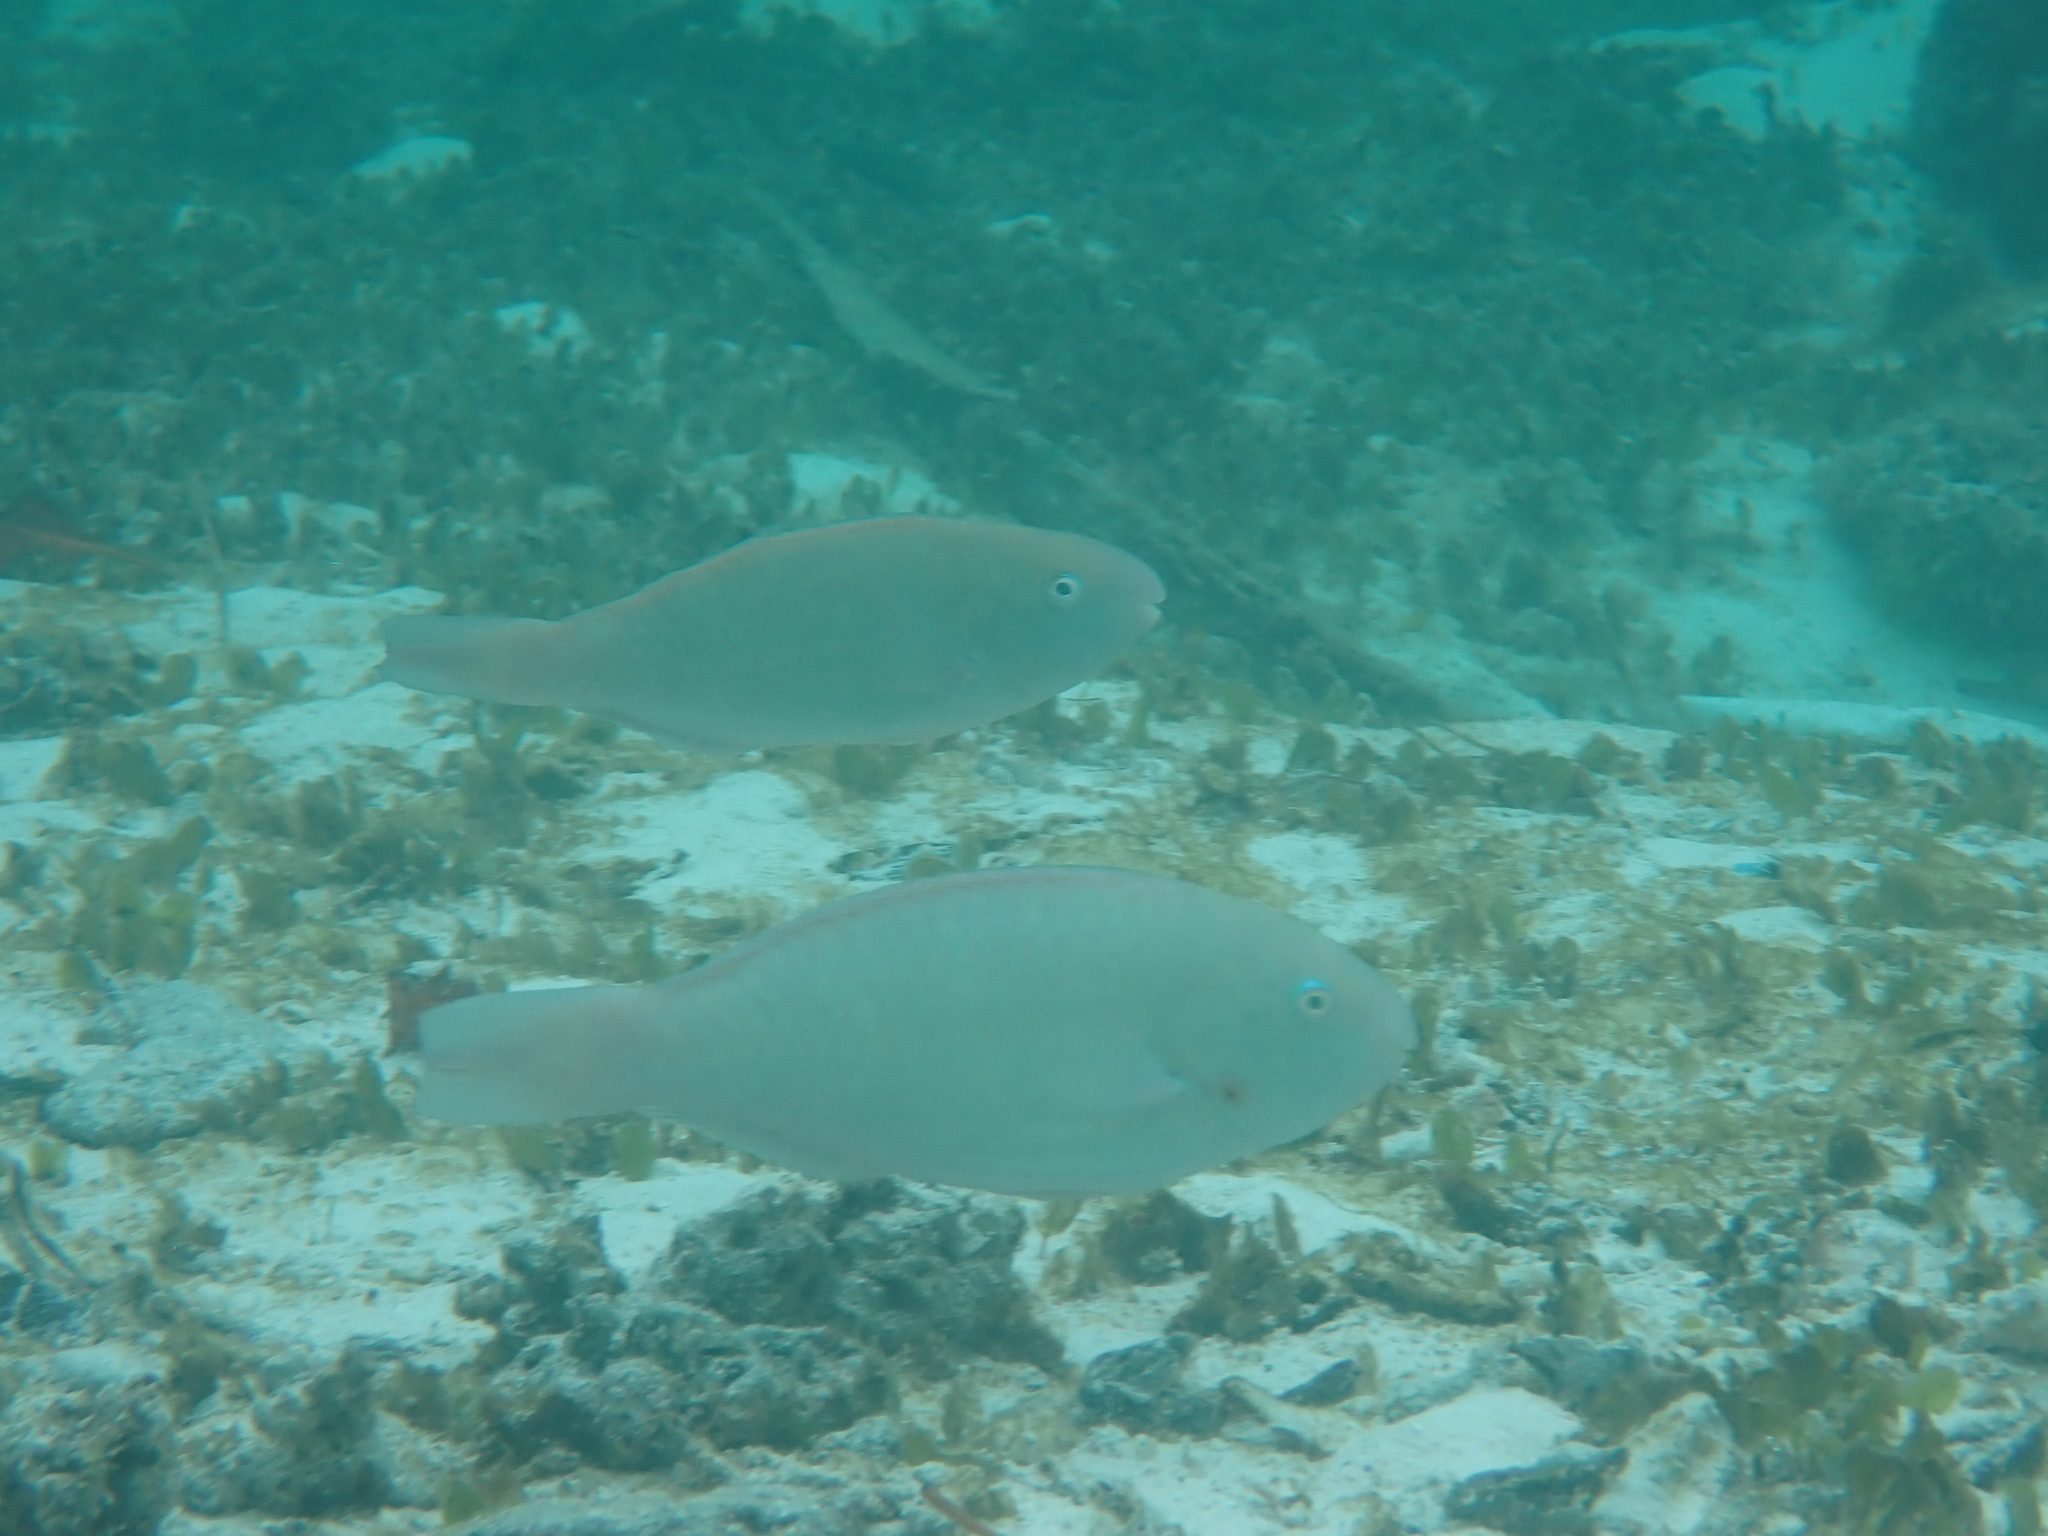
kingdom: Animalia
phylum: Chordata
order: Perciformes
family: Scaridae
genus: Scarus
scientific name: Scarus rivulatus
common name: Surf parrotfish
